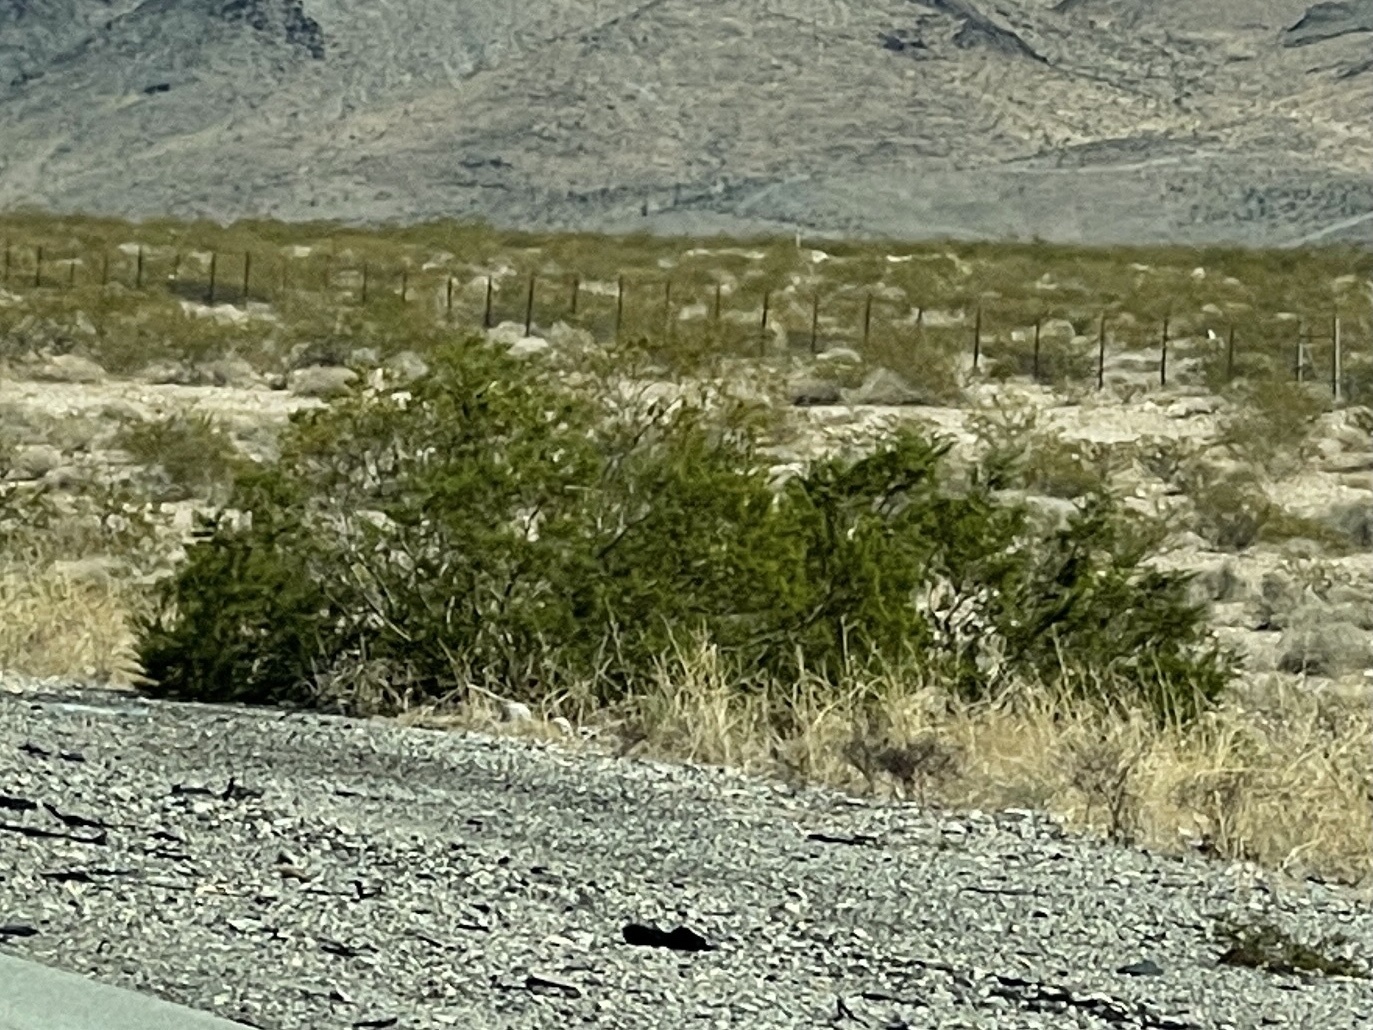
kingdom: Plantae
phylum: Tracheophyta
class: Magnoliopsida
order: Zygophyllales
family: Zygophyllaceae
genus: Larrea
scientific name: Larrea tridentata
